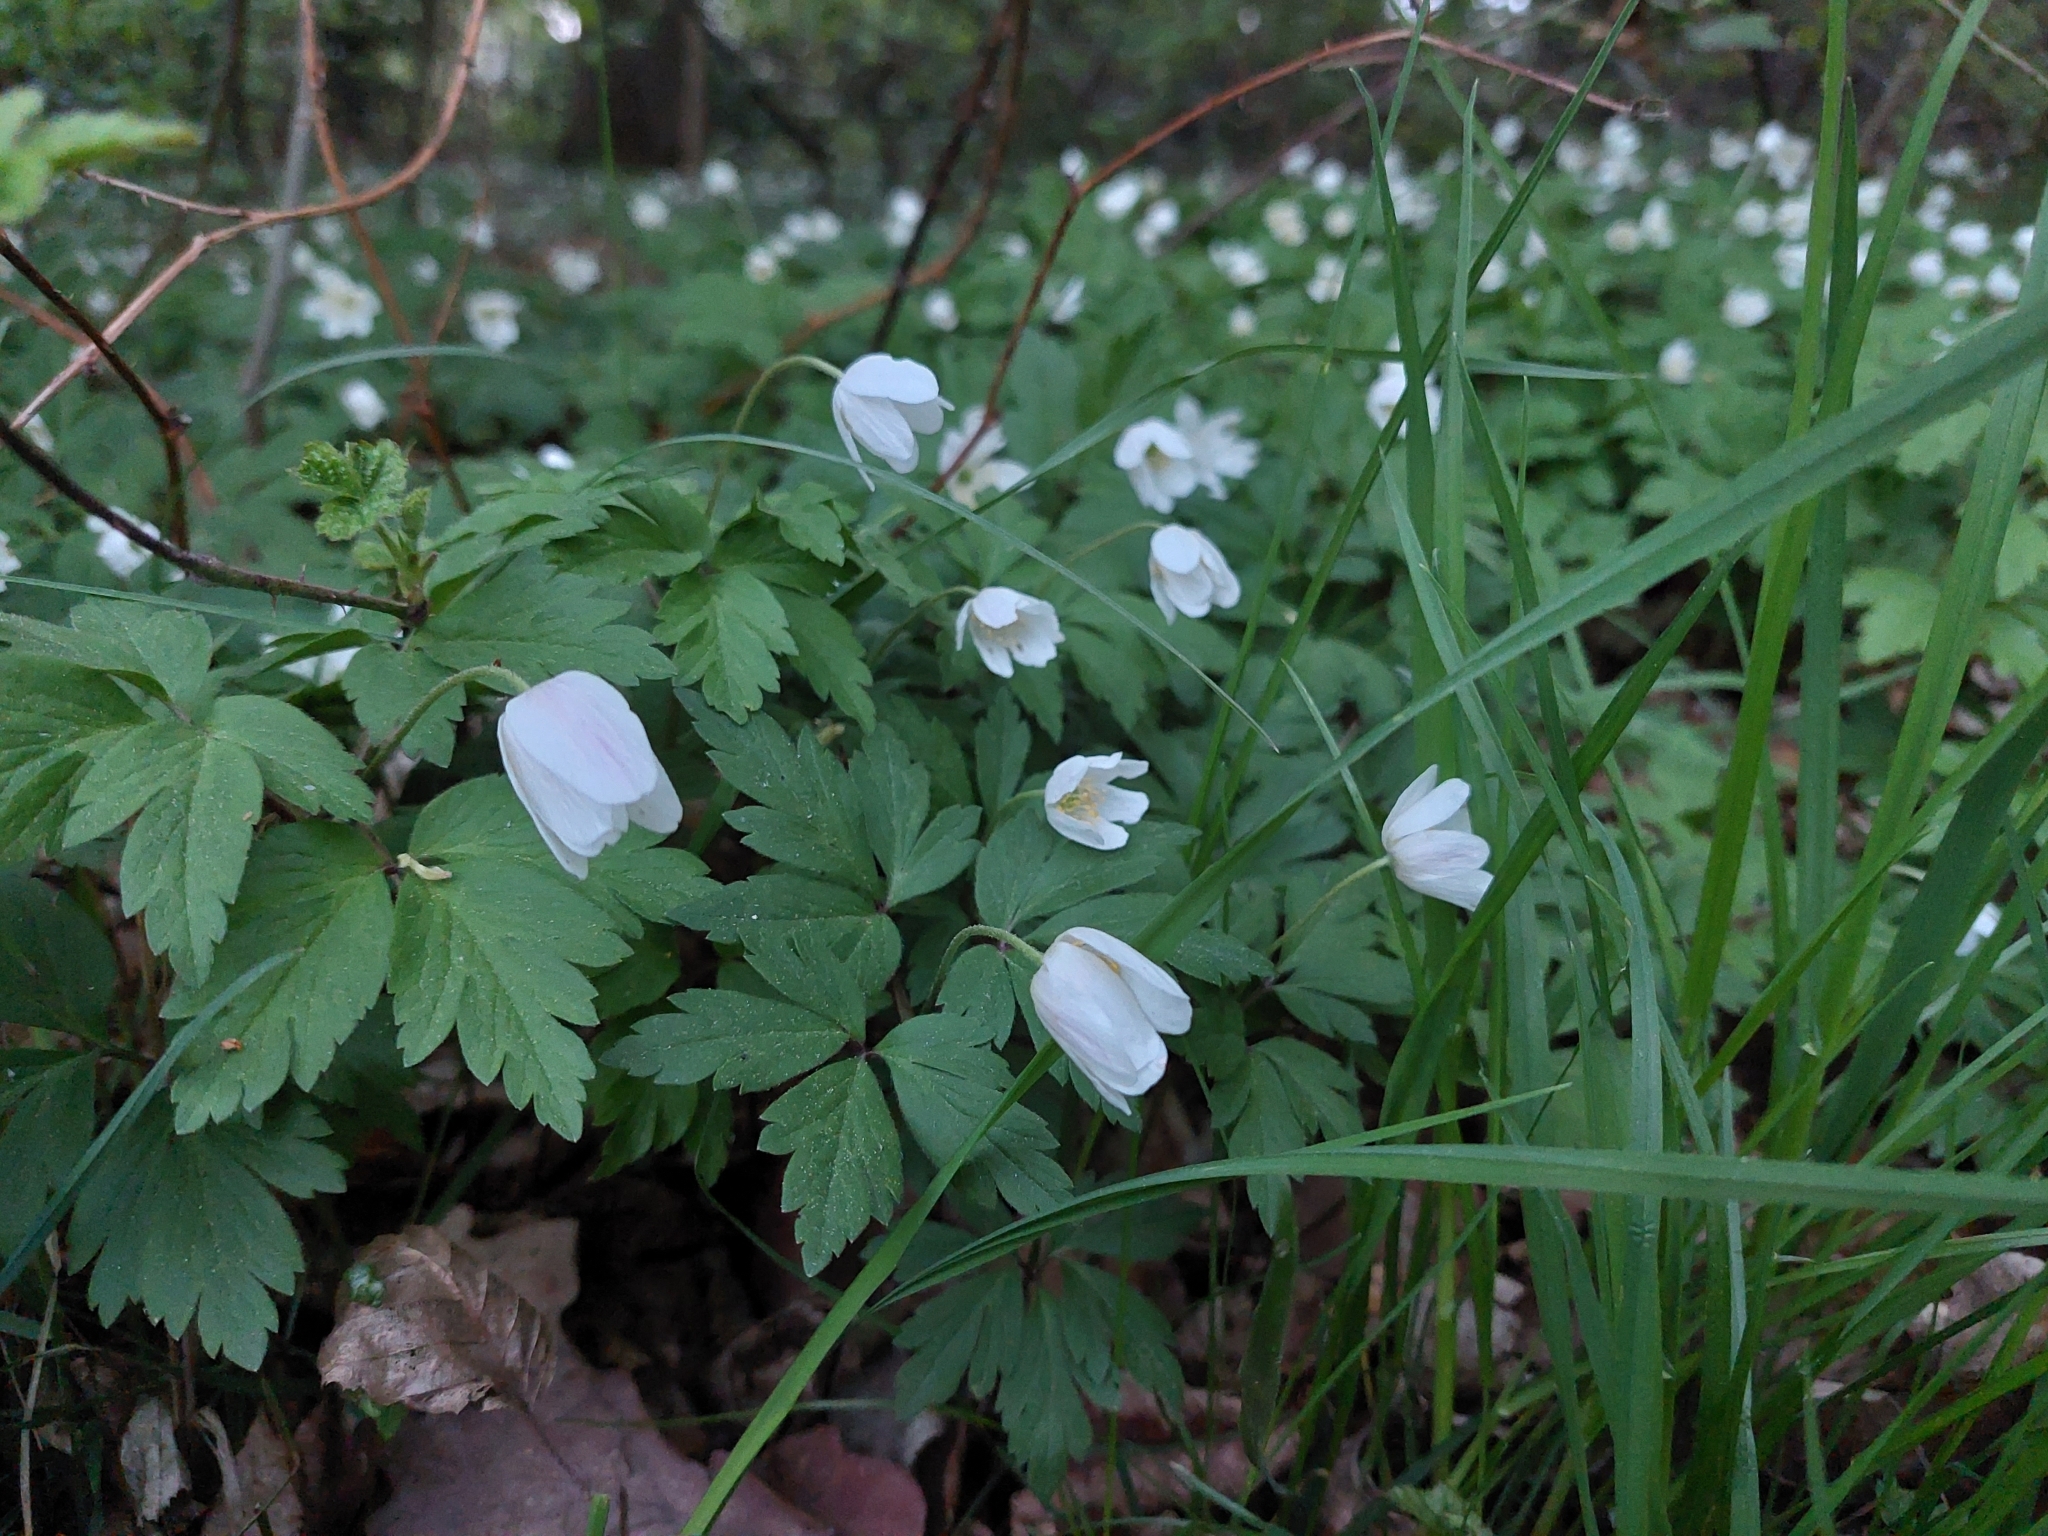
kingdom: Plantae
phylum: Tracheophyta
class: Magnoliopsida
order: Ranunculales
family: Ranunculaceae
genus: Anemone
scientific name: Anemone nemorosa
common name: Wood anemone
